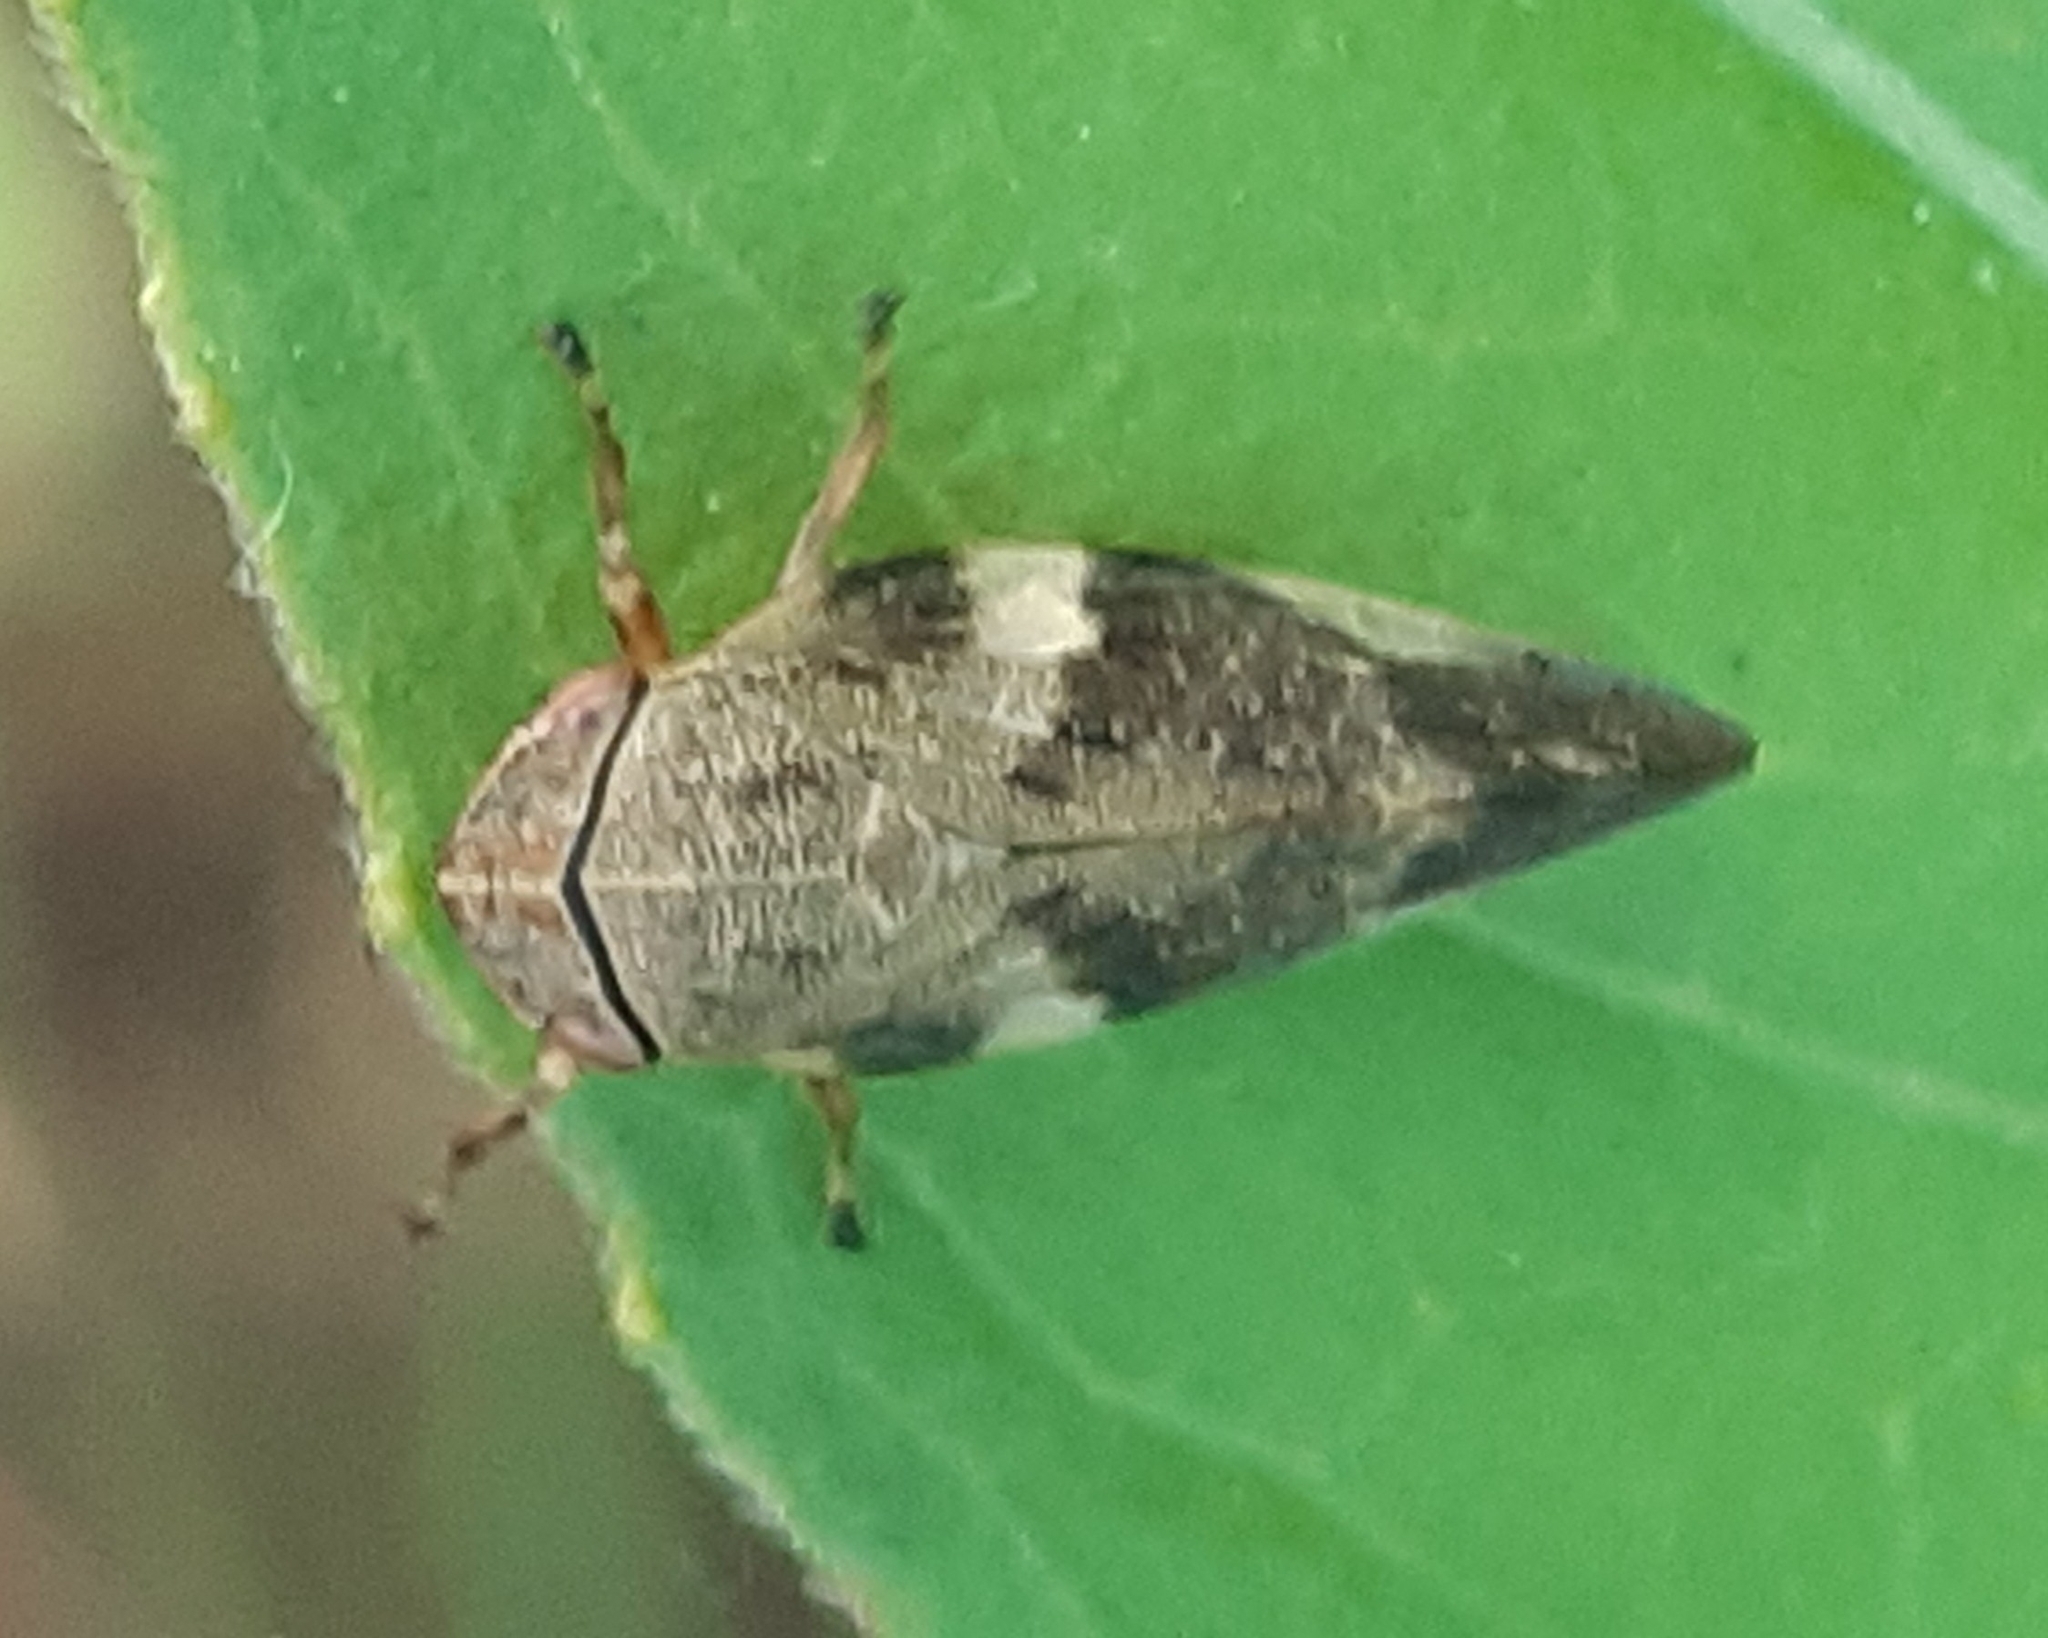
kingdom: Animalia
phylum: Arthropoda
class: Insecta
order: Hemiptera
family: Aphrophoridae
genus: Aphrophora
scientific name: Aphrophora alni
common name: European alder spittlebug
